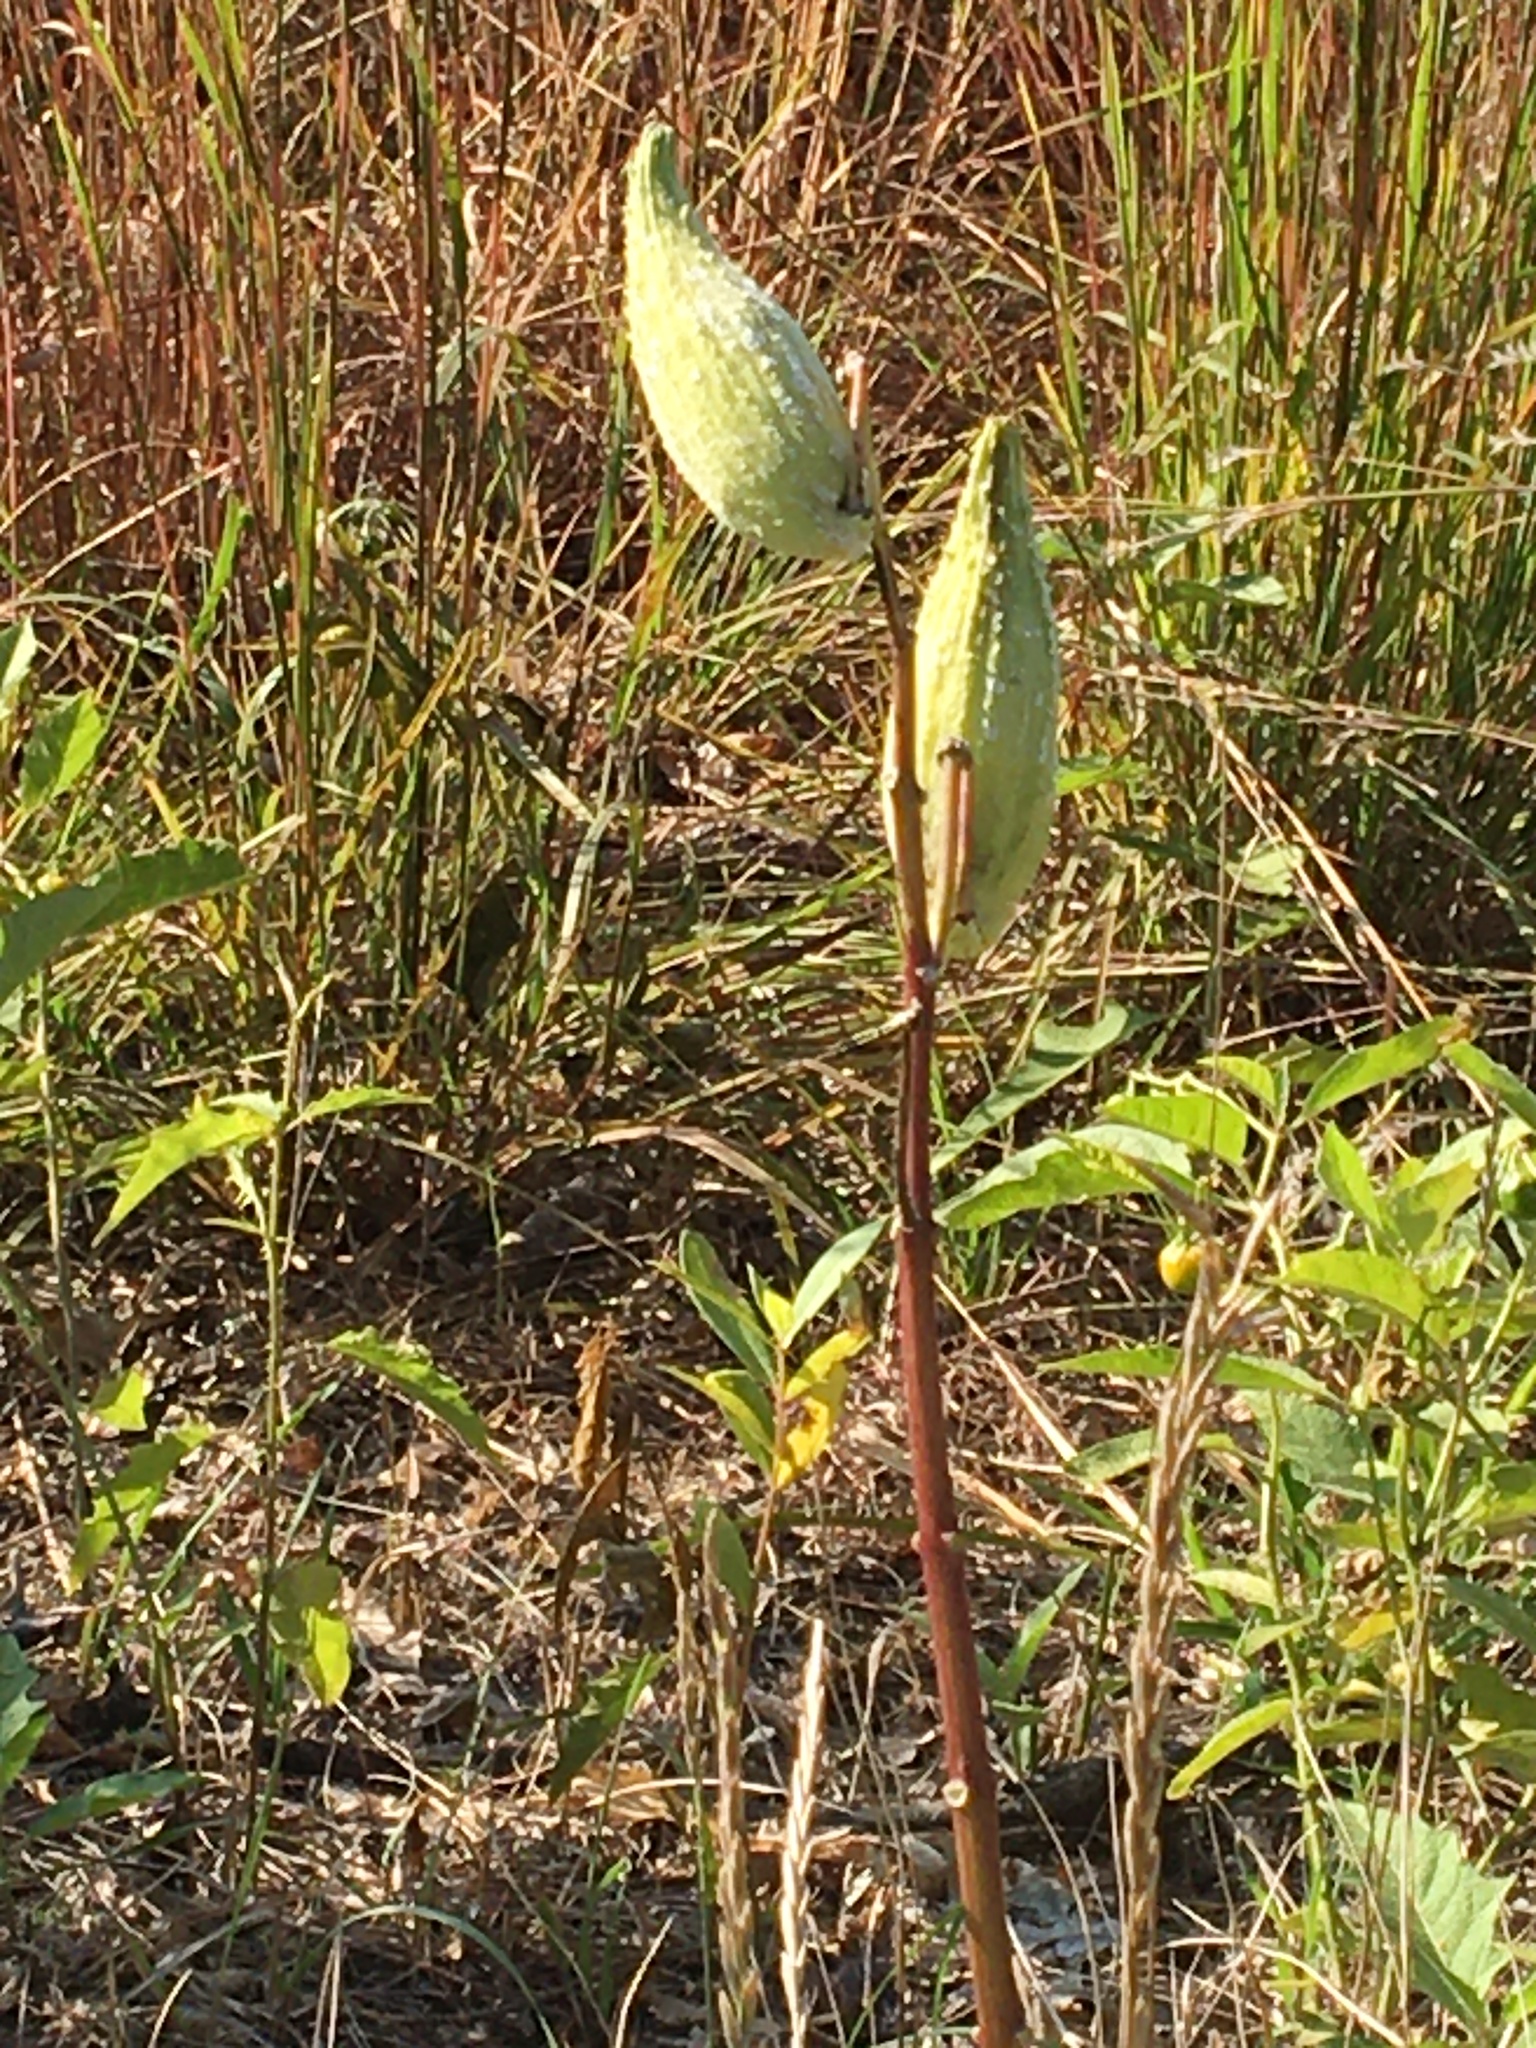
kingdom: Plantae
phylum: Tracheophyta
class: Magnoliopsida
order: Gentianales
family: Apocynaceae
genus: Asclepias
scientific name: Asclepias syriaca
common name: Common milkweed
